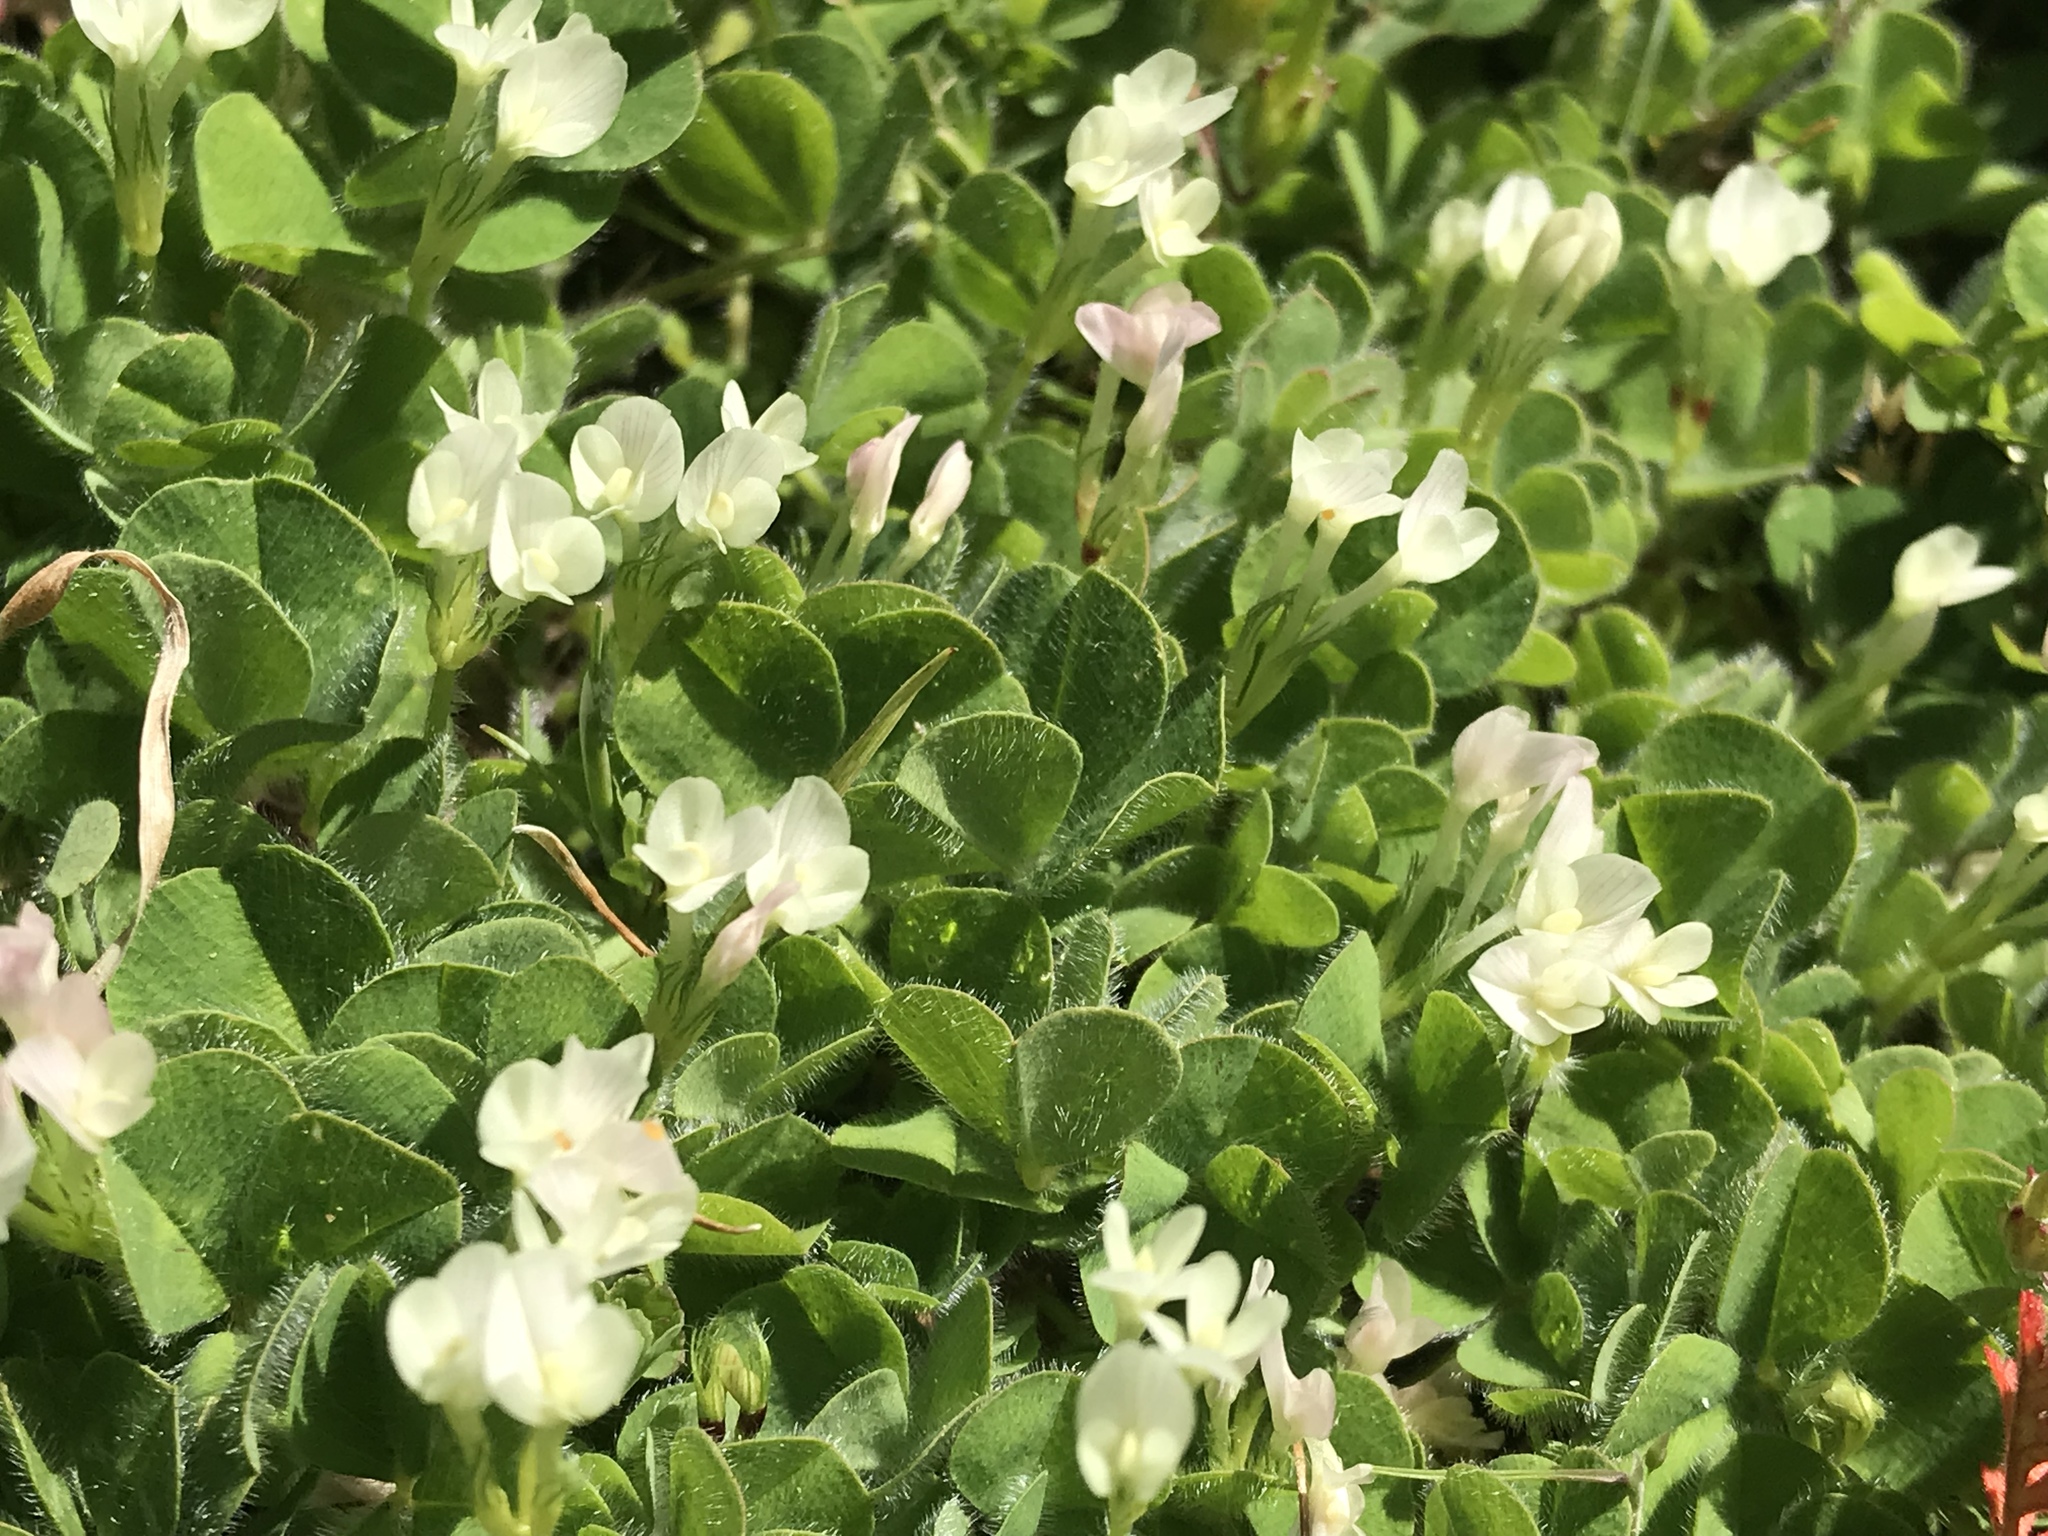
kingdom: Plantae
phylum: Tracheophyta
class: Magnoliopsida
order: Fabales
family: Fabaceae
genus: Trifolium
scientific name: Trifolium subterraneum
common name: Subterranean clover
